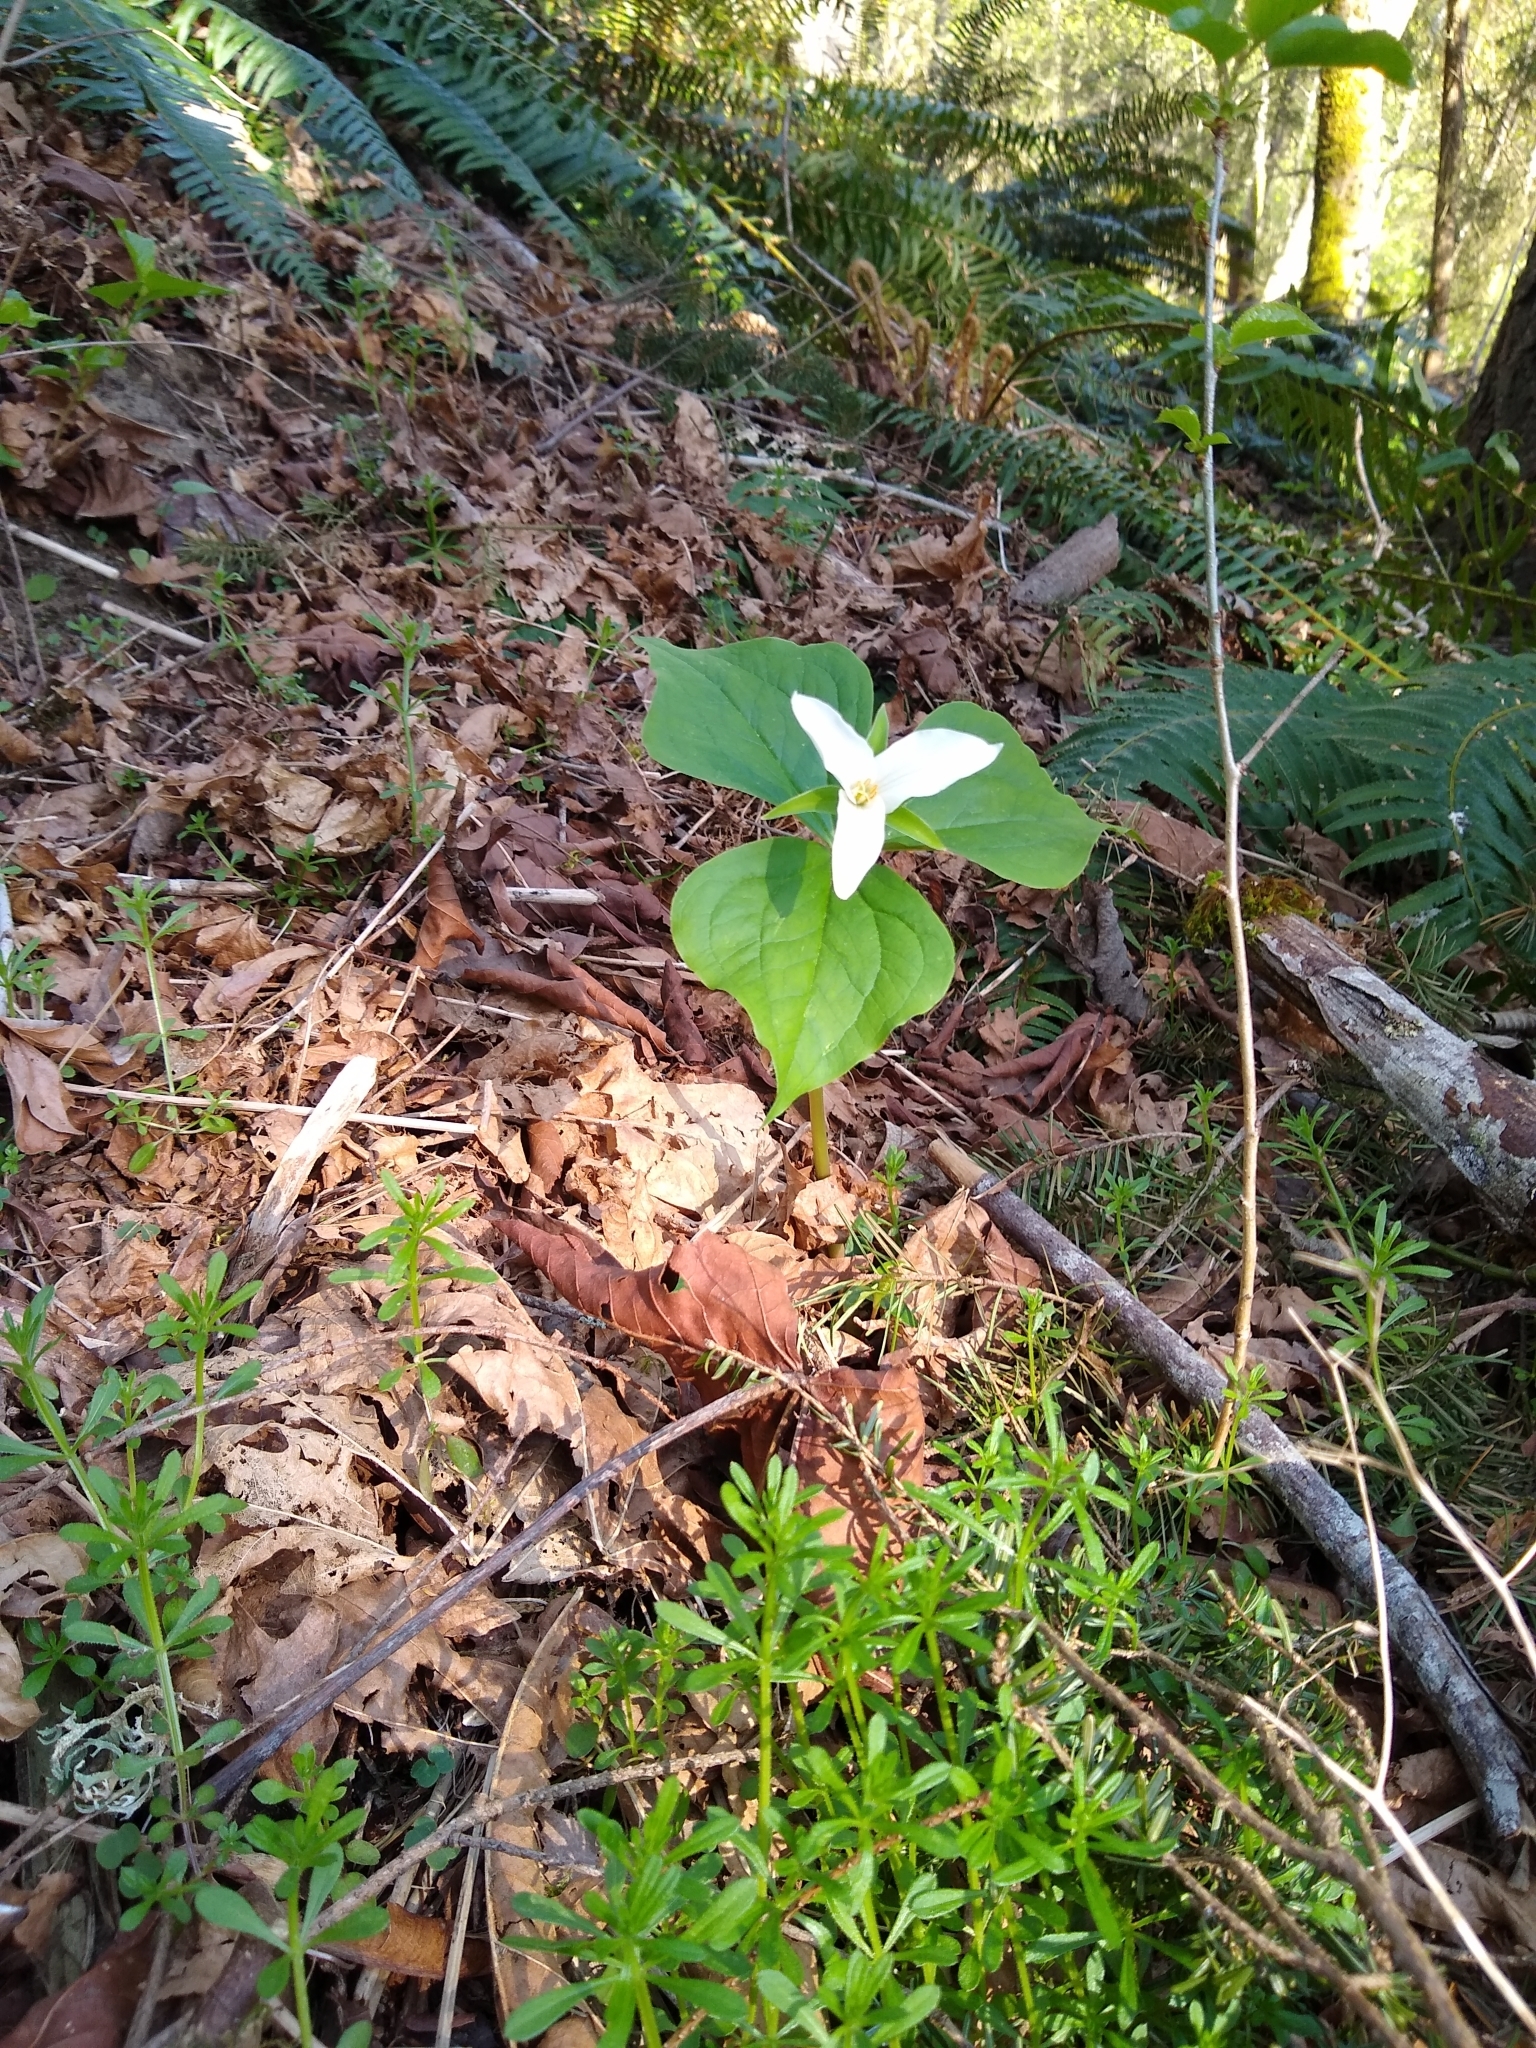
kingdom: Plantae
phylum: Tracheophyta
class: Liliopsida
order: Liliales
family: Melanthiaceae
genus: Trillium
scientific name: Trillium ovatum
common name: Pacific trillium
